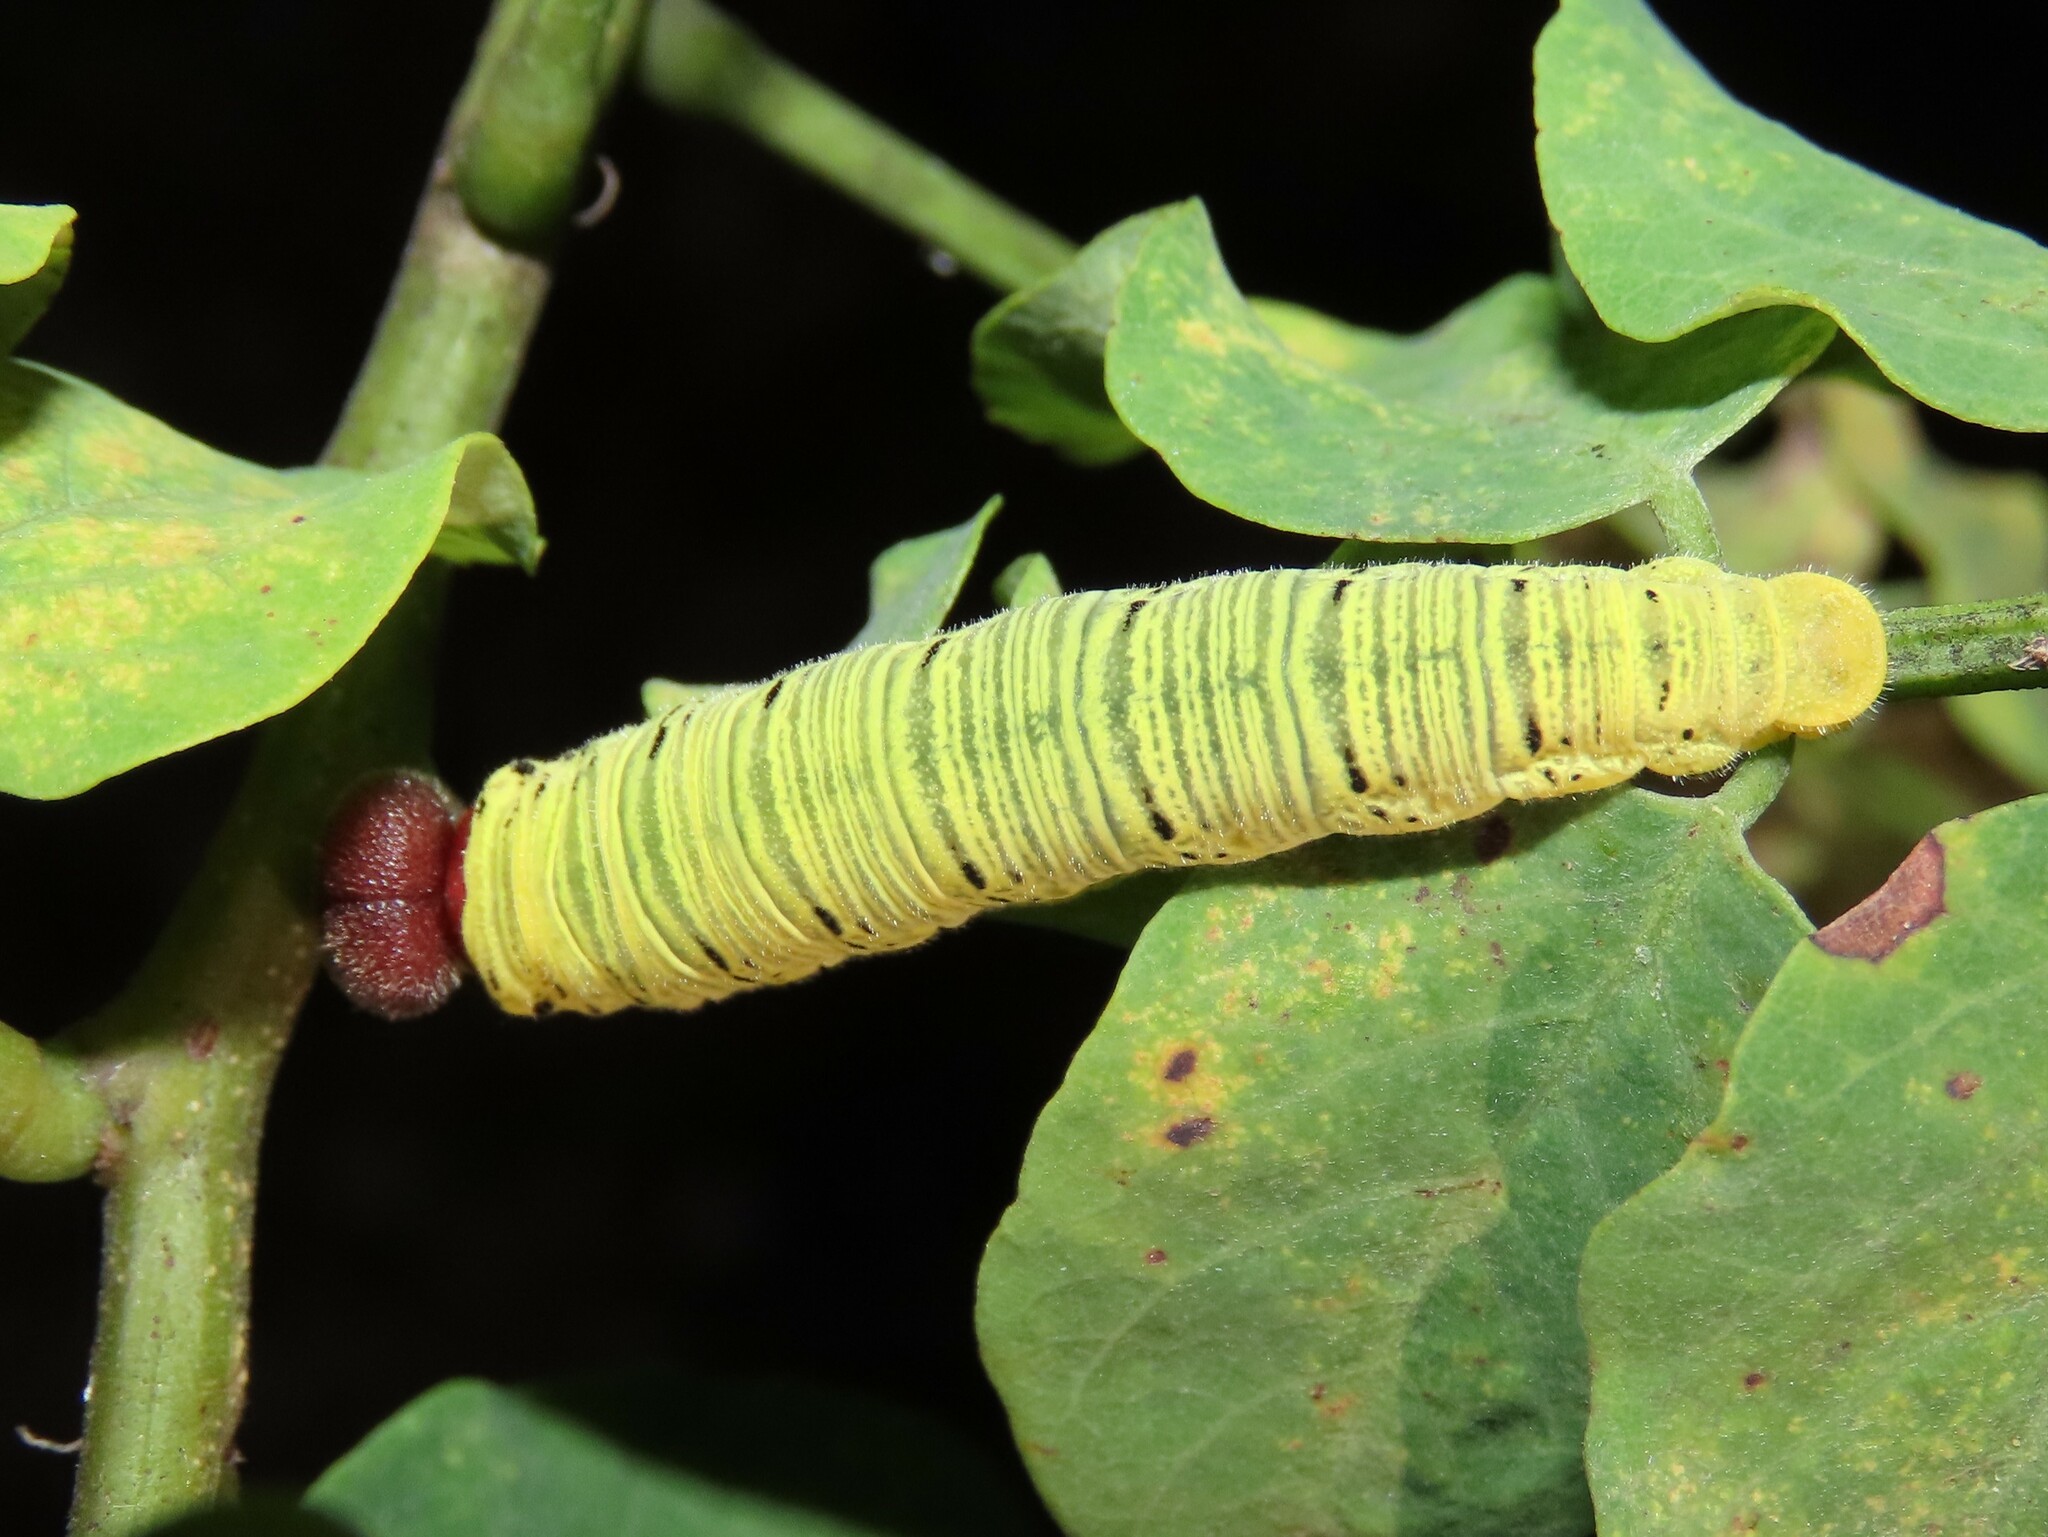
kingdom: Animalia
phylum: Arthropoda
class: Insecta
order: Lepidoptera
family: Hesperiidae
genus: Epargyreus
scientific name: Epargyreus clarus
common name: Silver-spotted skipper
